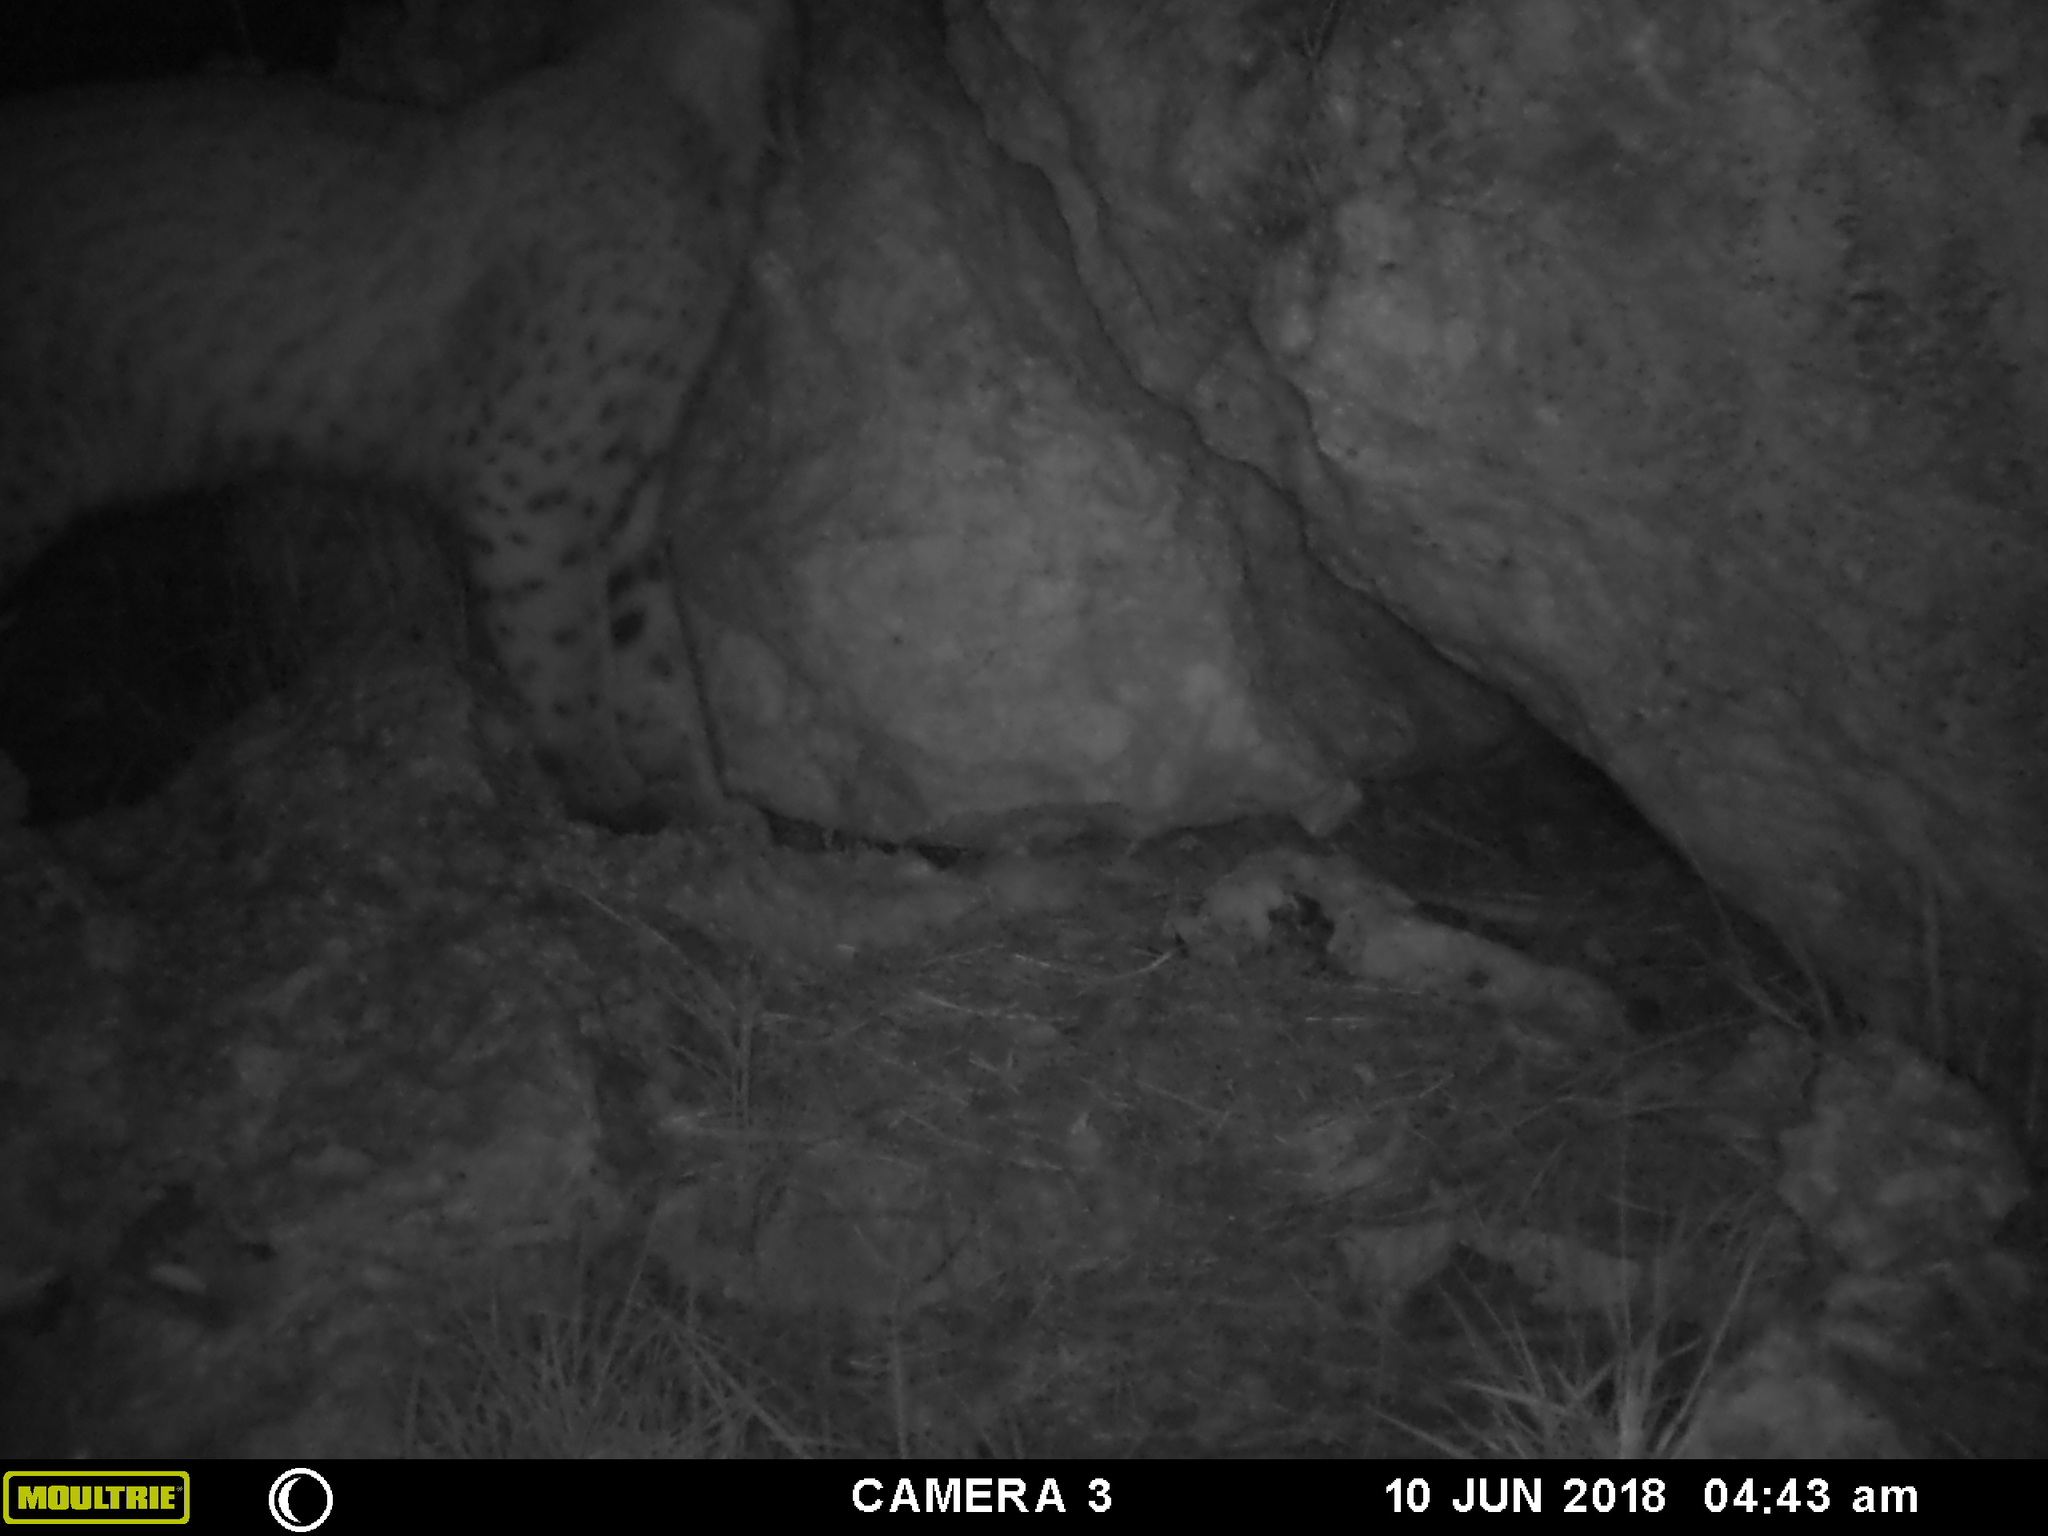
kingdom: Animalia
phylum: Chordata
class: Mammalia
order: Carnivora
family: Felidae
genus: Lynx
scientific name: Lynx rufus
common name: Bobcat
